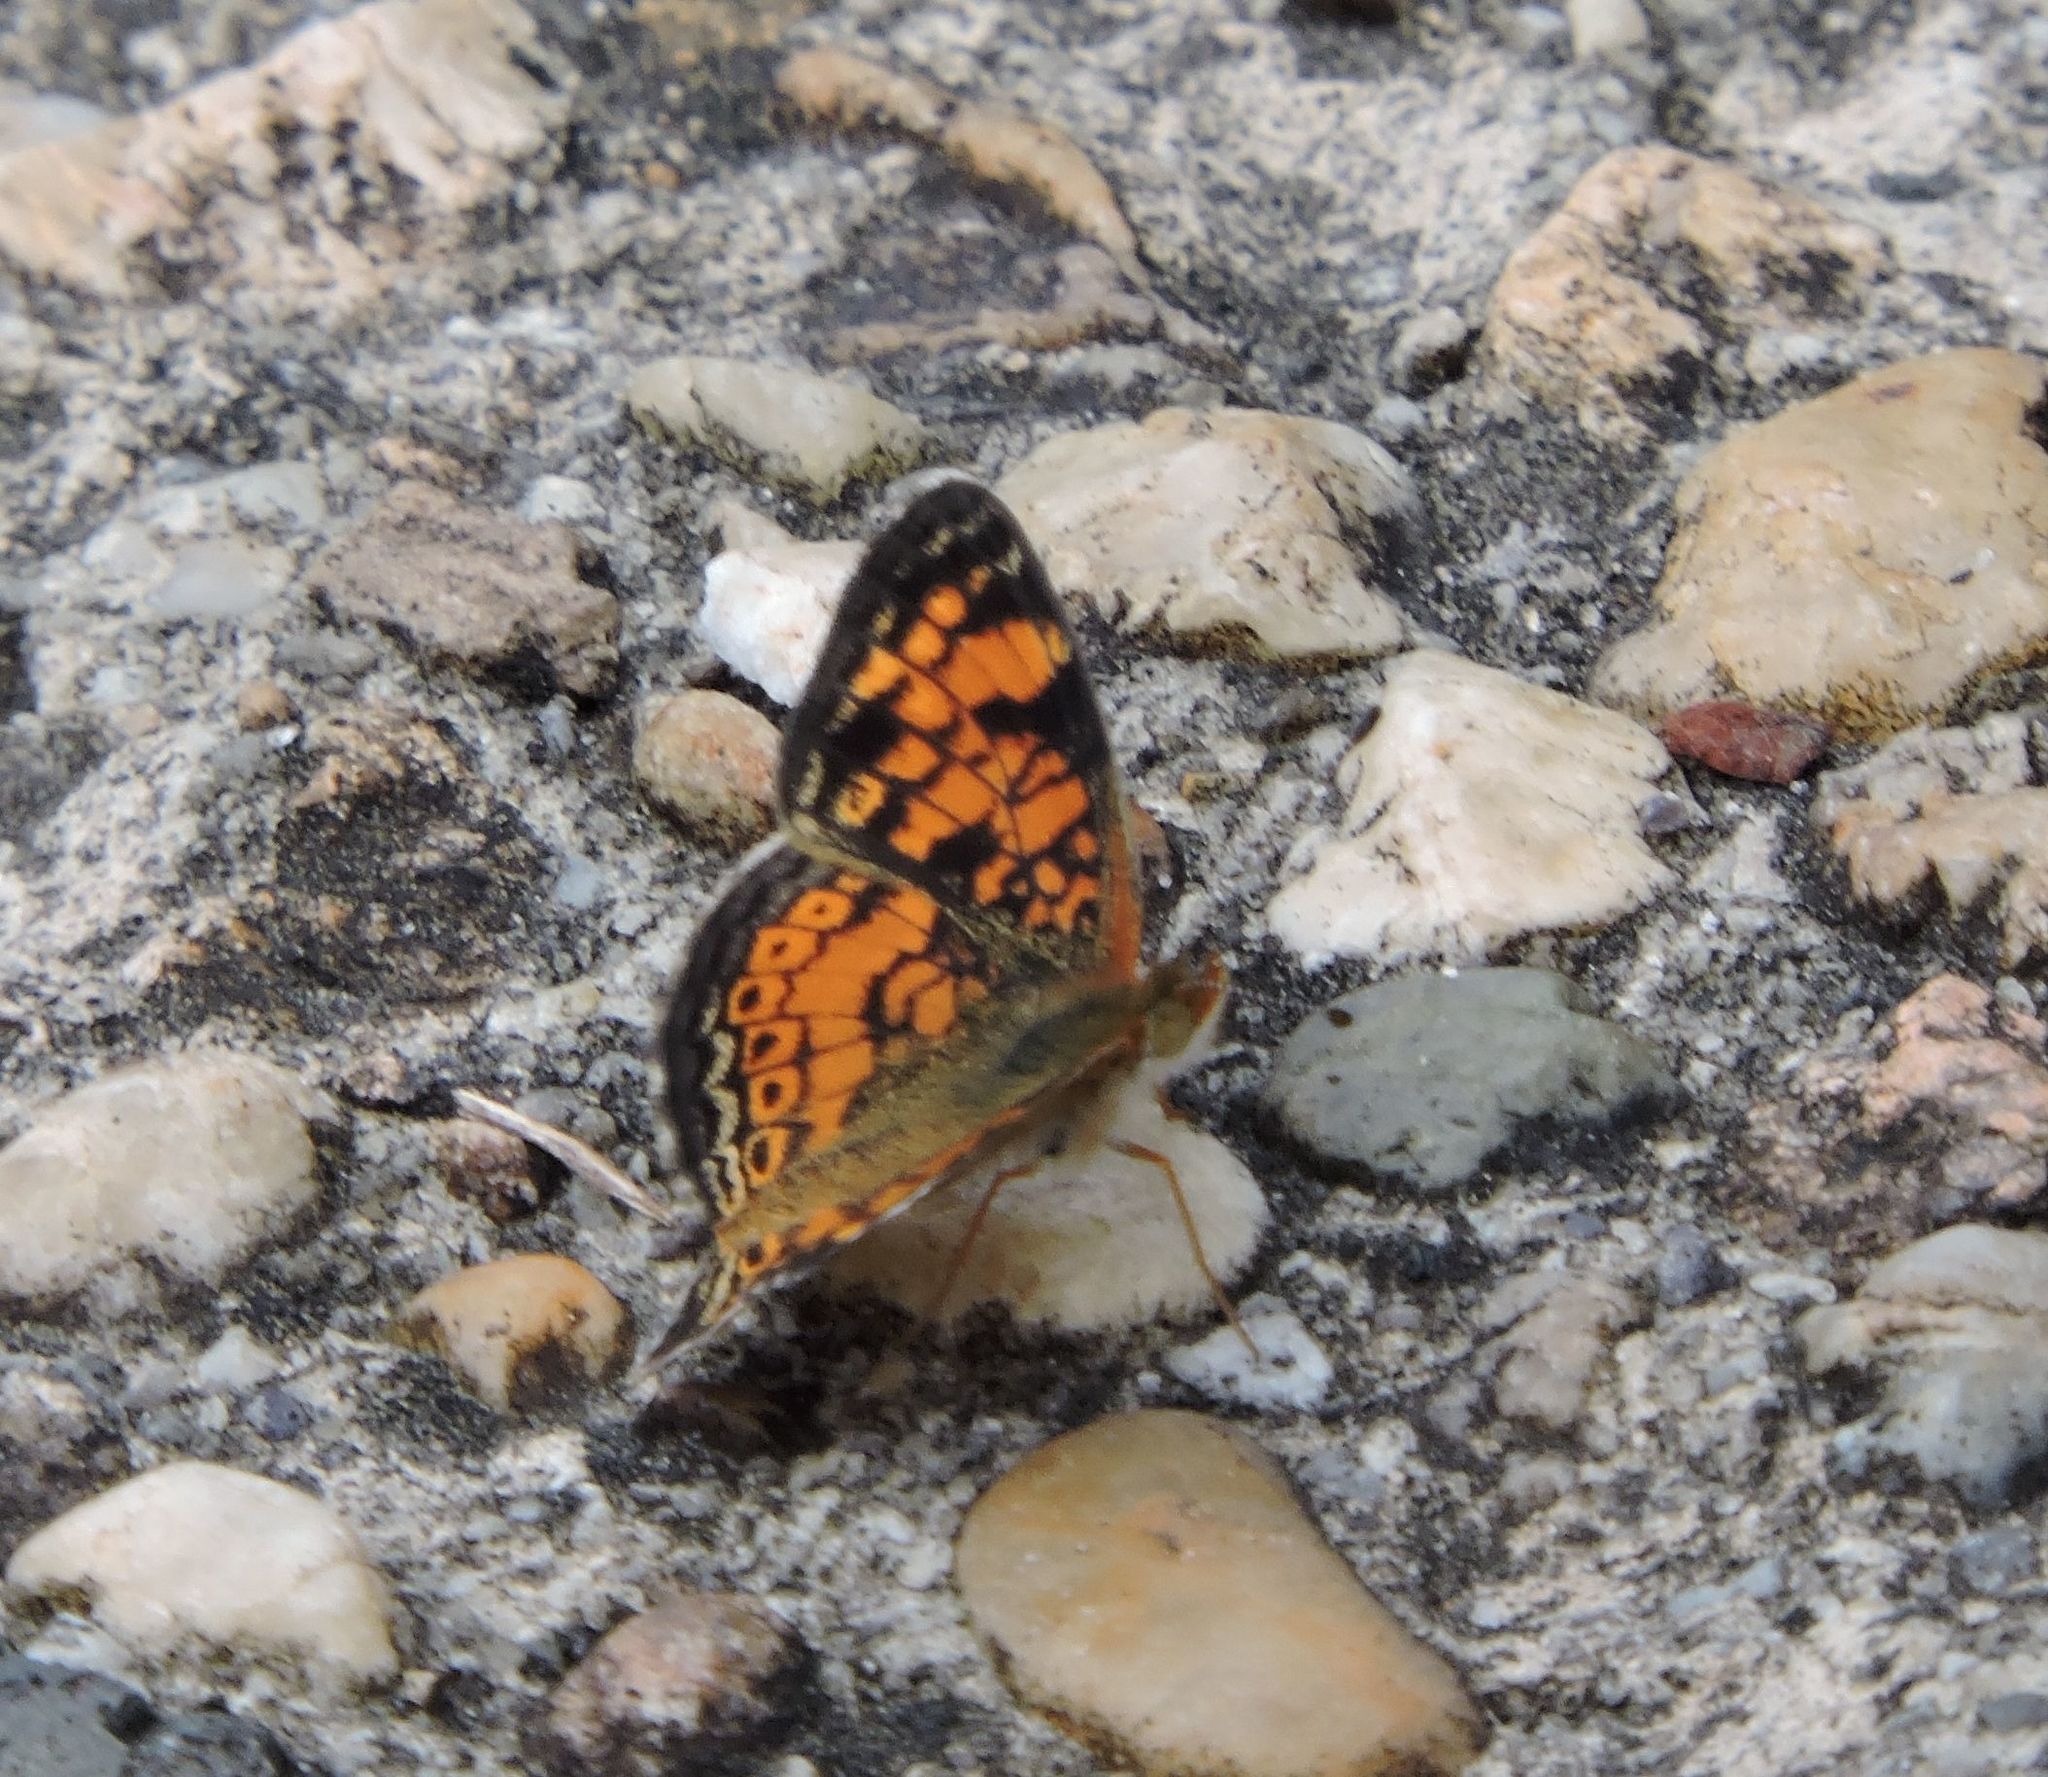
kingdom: Animalia
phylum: Arthropoda
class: Insecta
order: Lepidoptera
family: Nymphalidae
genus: Phyciodes
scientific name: Phyciodes tharos
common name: Pearl crescent
